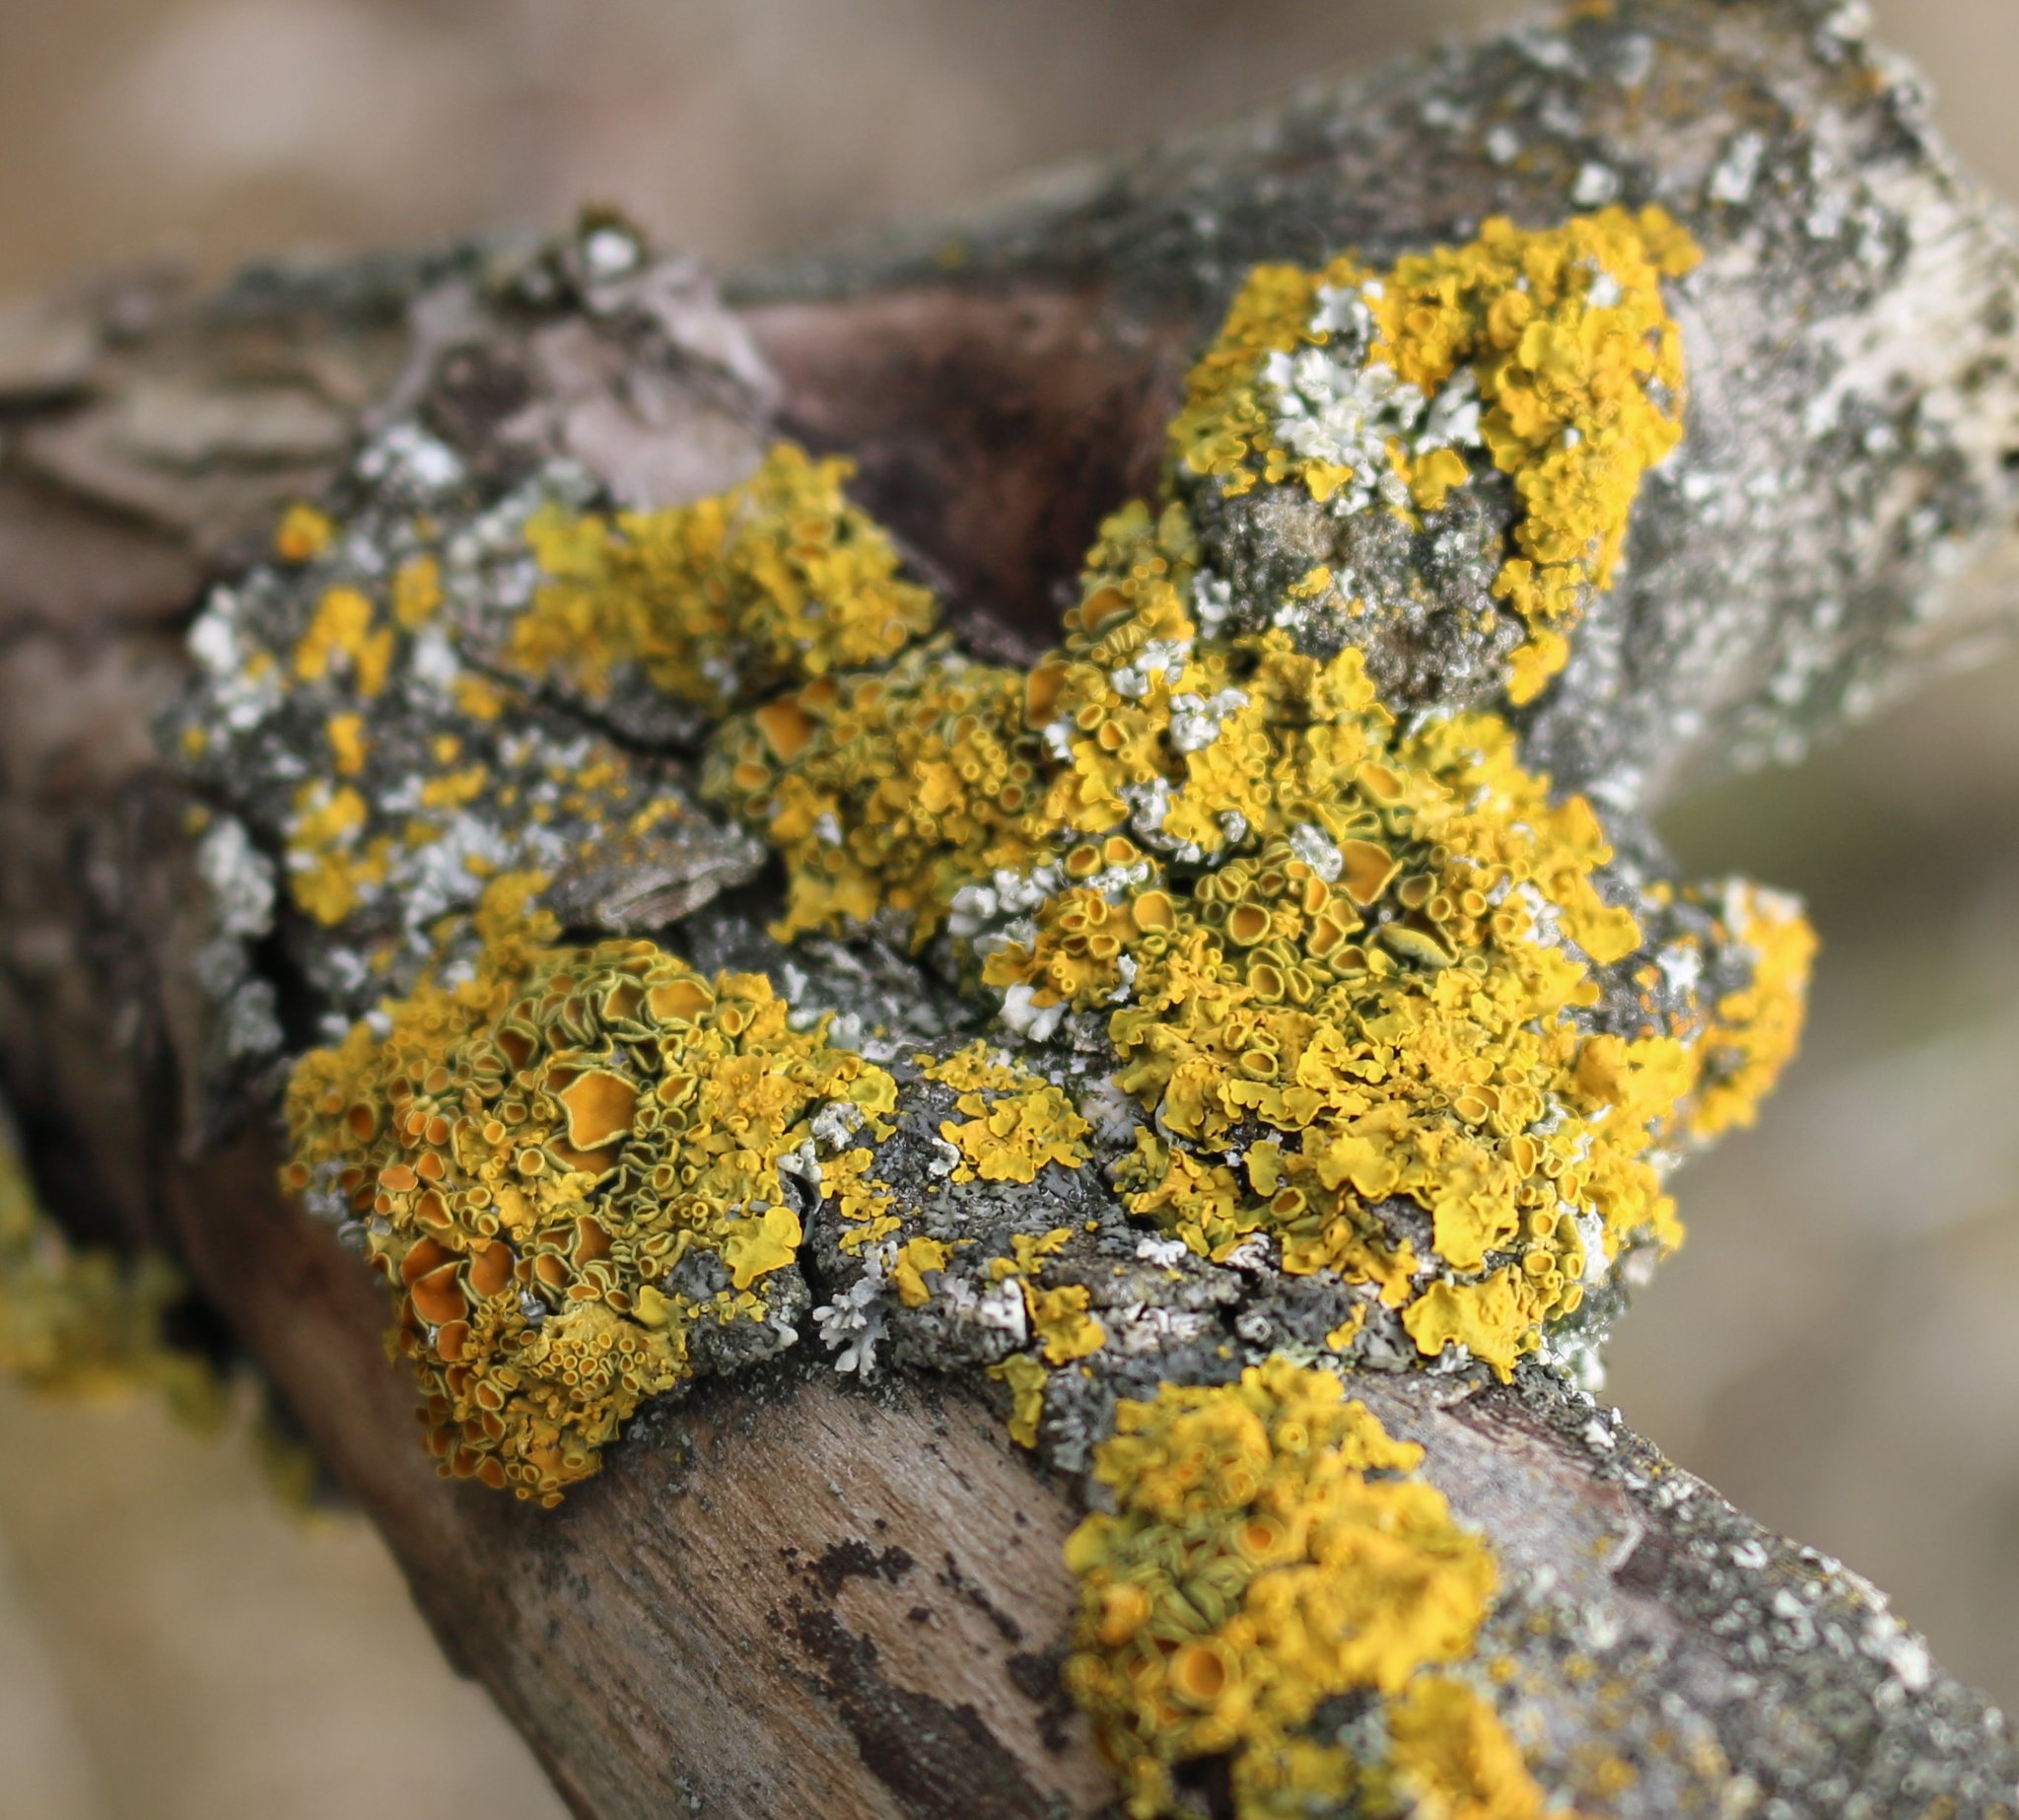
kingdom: Fungi
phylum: Ascomycota
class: Lecanoromycetes
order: Teloschistales
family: Teloschistaceae
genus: Xanthoria
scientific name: Xanthoria parietina
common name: Common orange lichen
